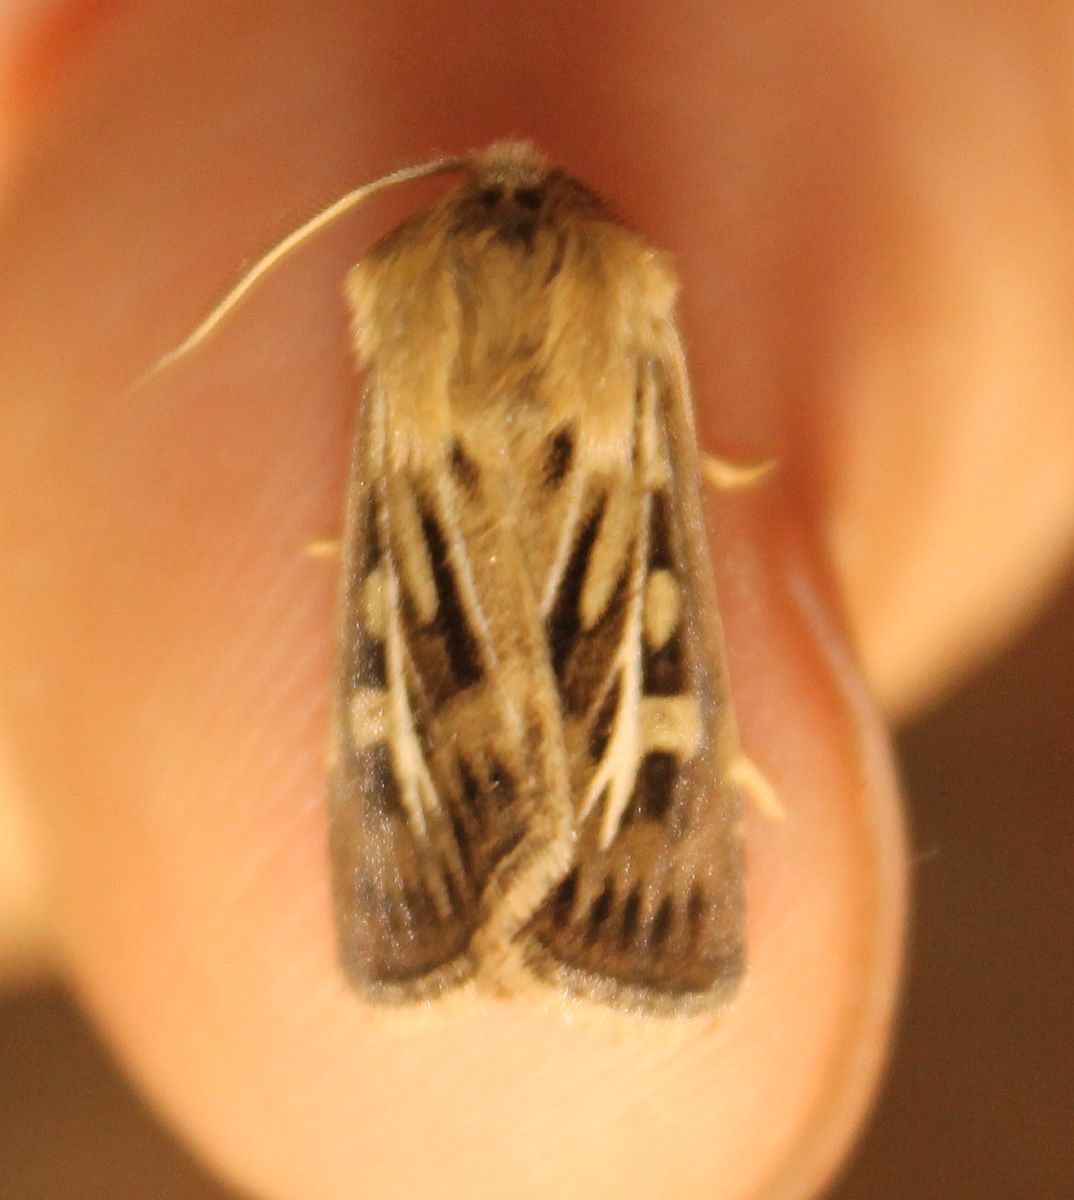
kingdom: Animalia
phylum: Arthropoda
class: Insecta
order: Lepidoptera
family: Noctuidae
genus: Cerapteryx
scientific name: Cerapteryx graminis
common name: Antler moth
